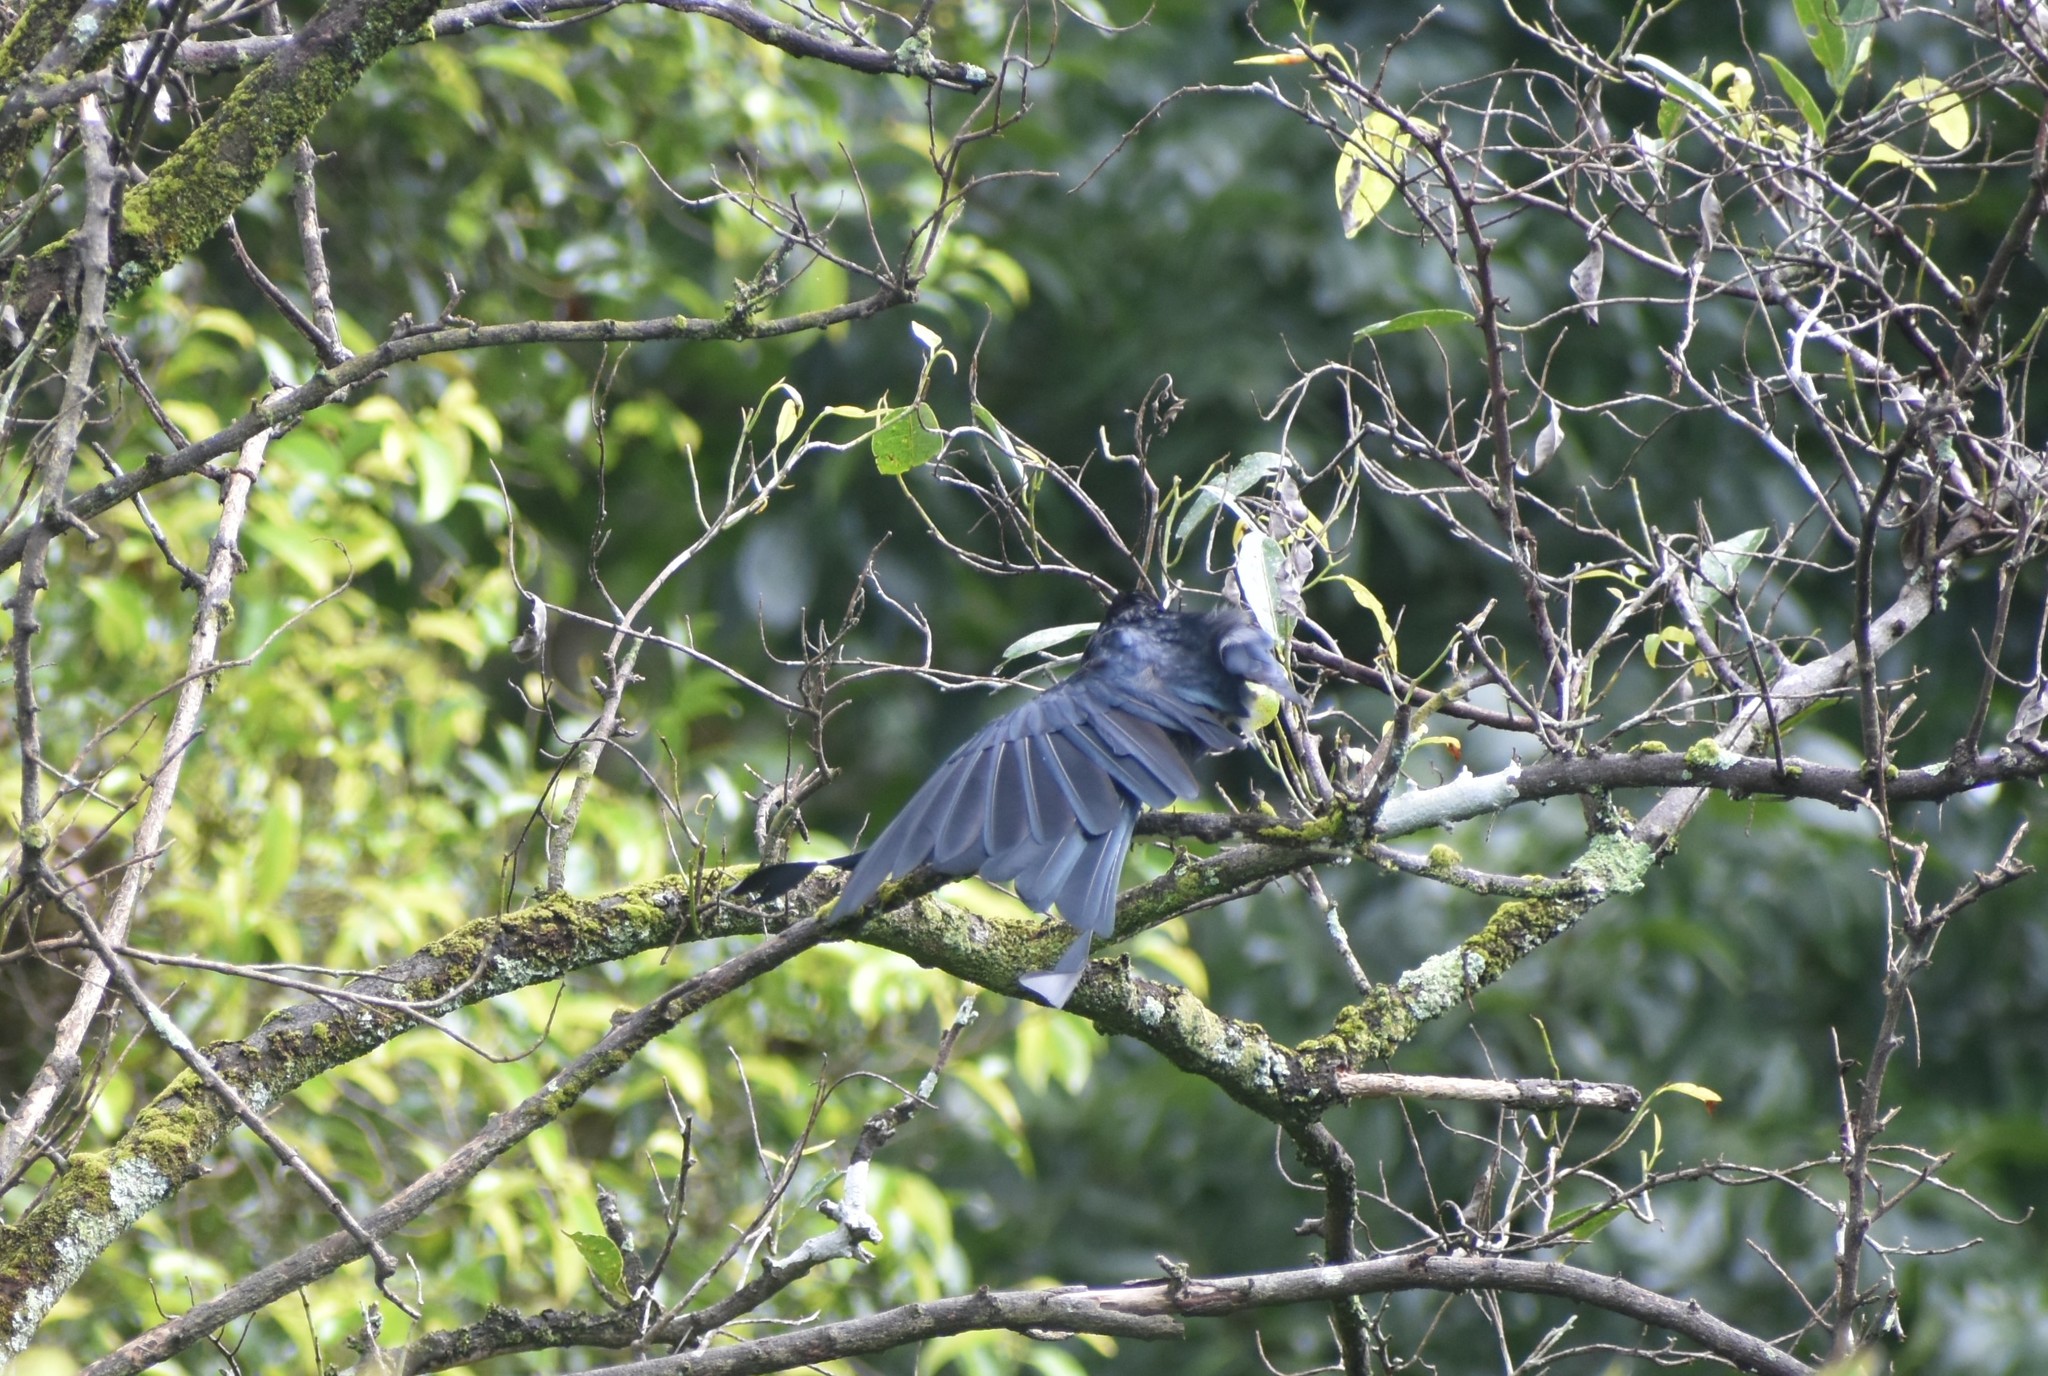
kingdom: Animalia
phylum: Chordata
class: Aves
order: Passeriformes
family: Dicruridae
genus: Dicrurus
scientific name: Dicrurus paradiseus
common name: Greater racket-tailed drongo
